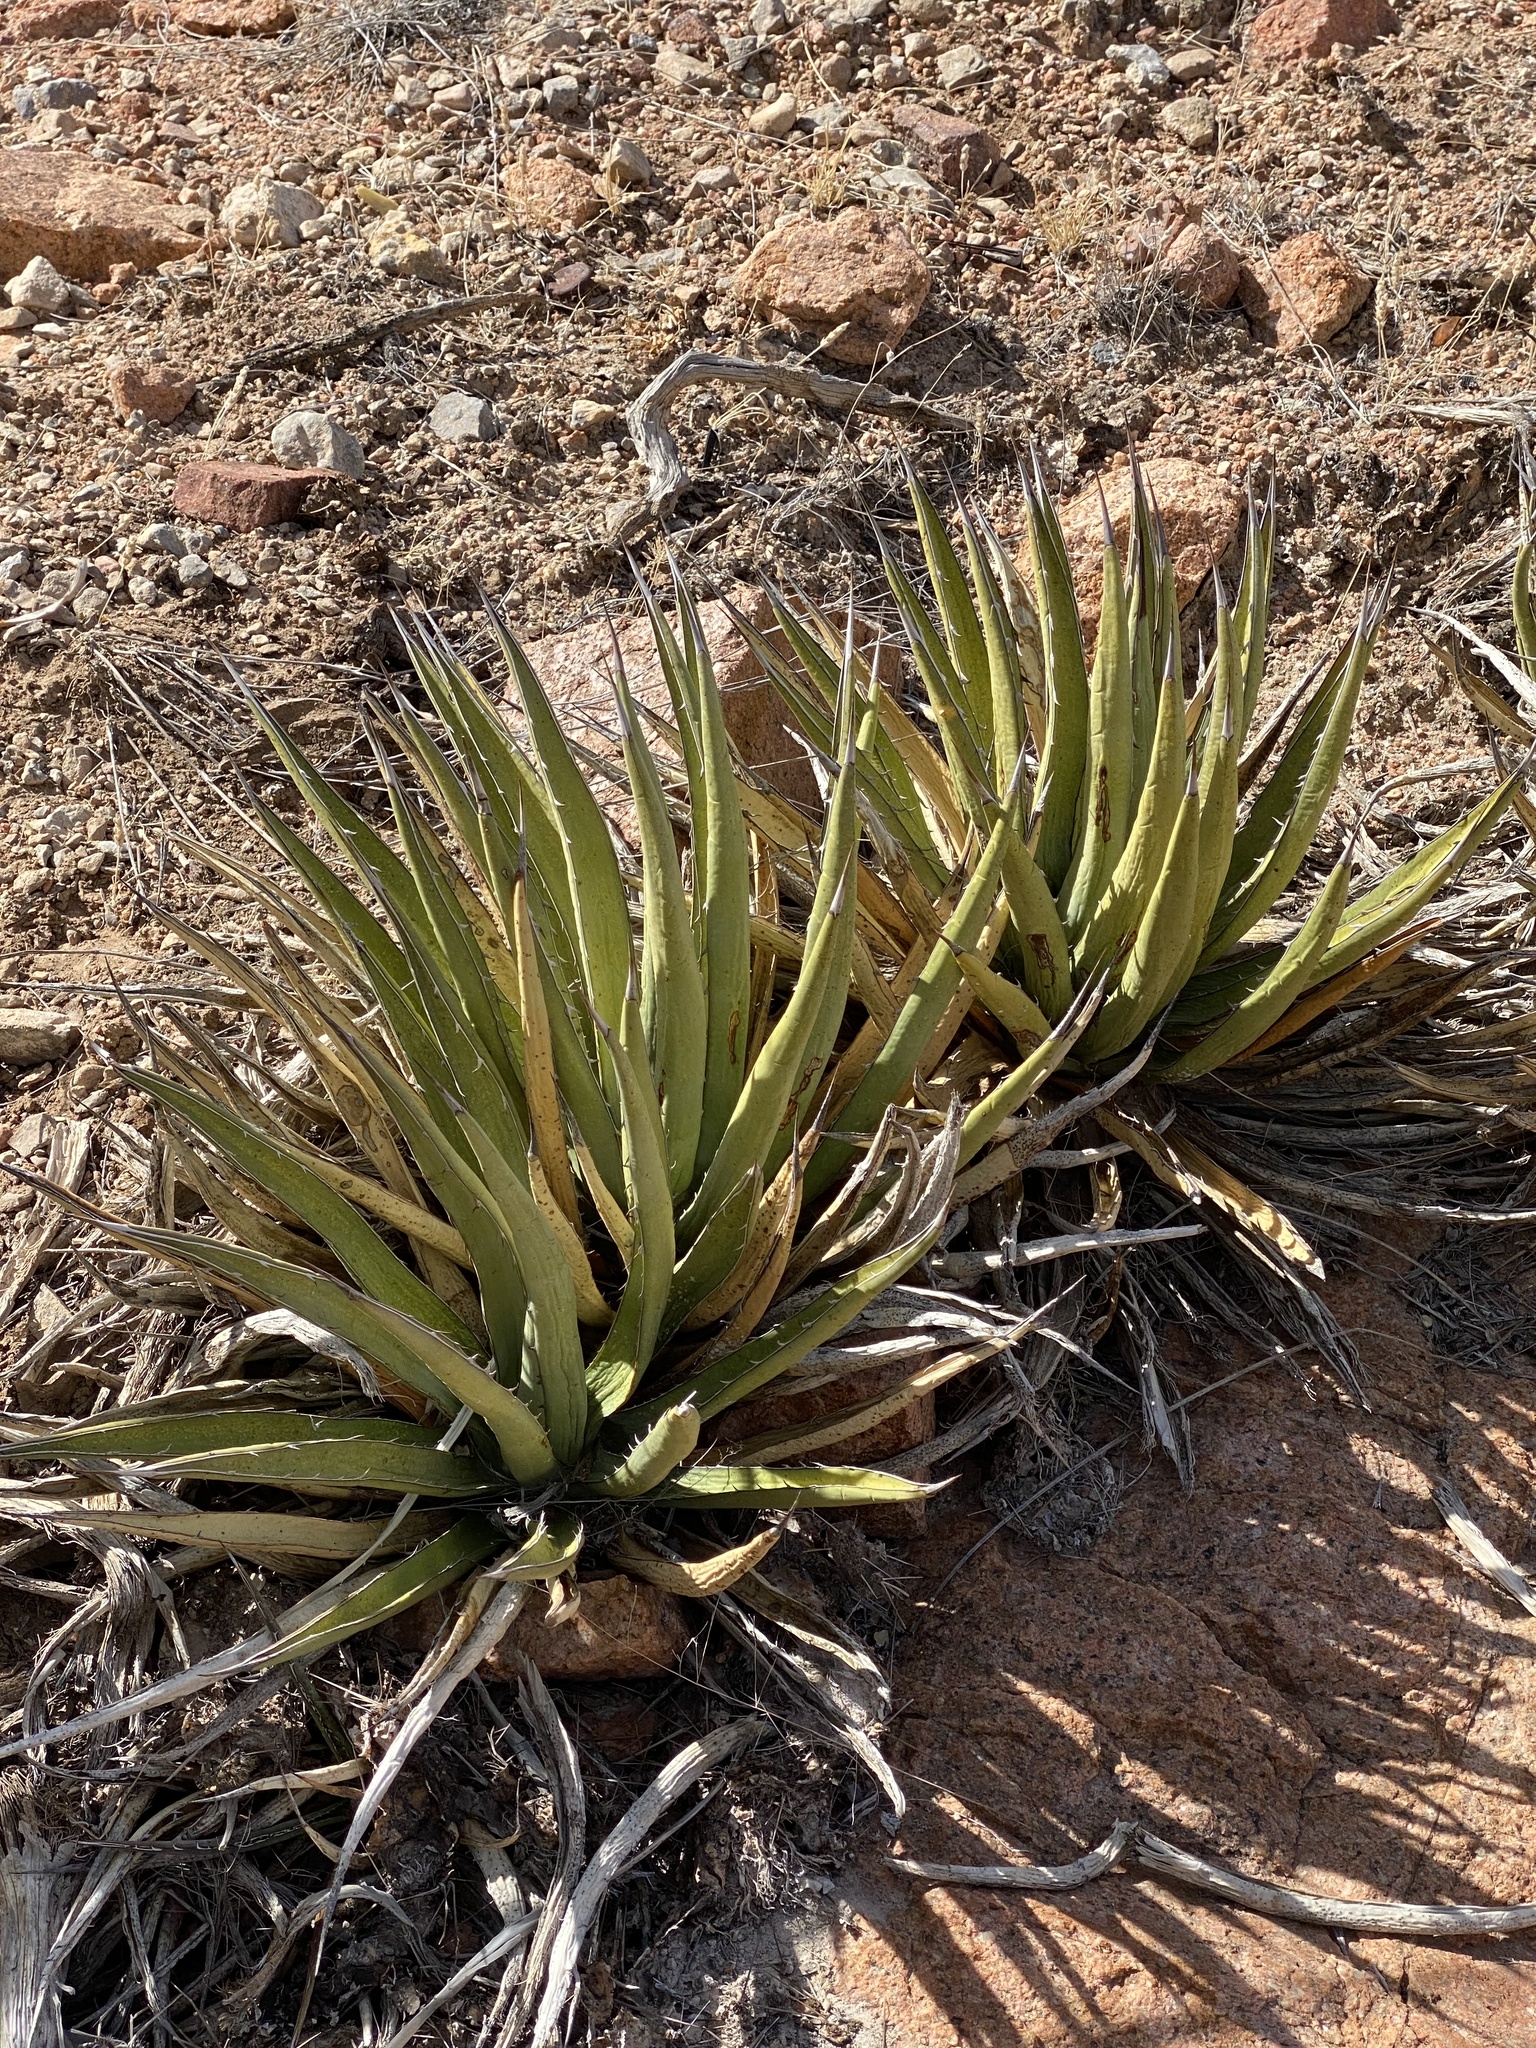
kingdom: Plantae
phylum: Tracheophyta
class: Liliopsida
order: Asparagales
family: Asparagaceae
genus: Agave
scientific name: Agave lechuguilla
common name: Lecheguilla agave
